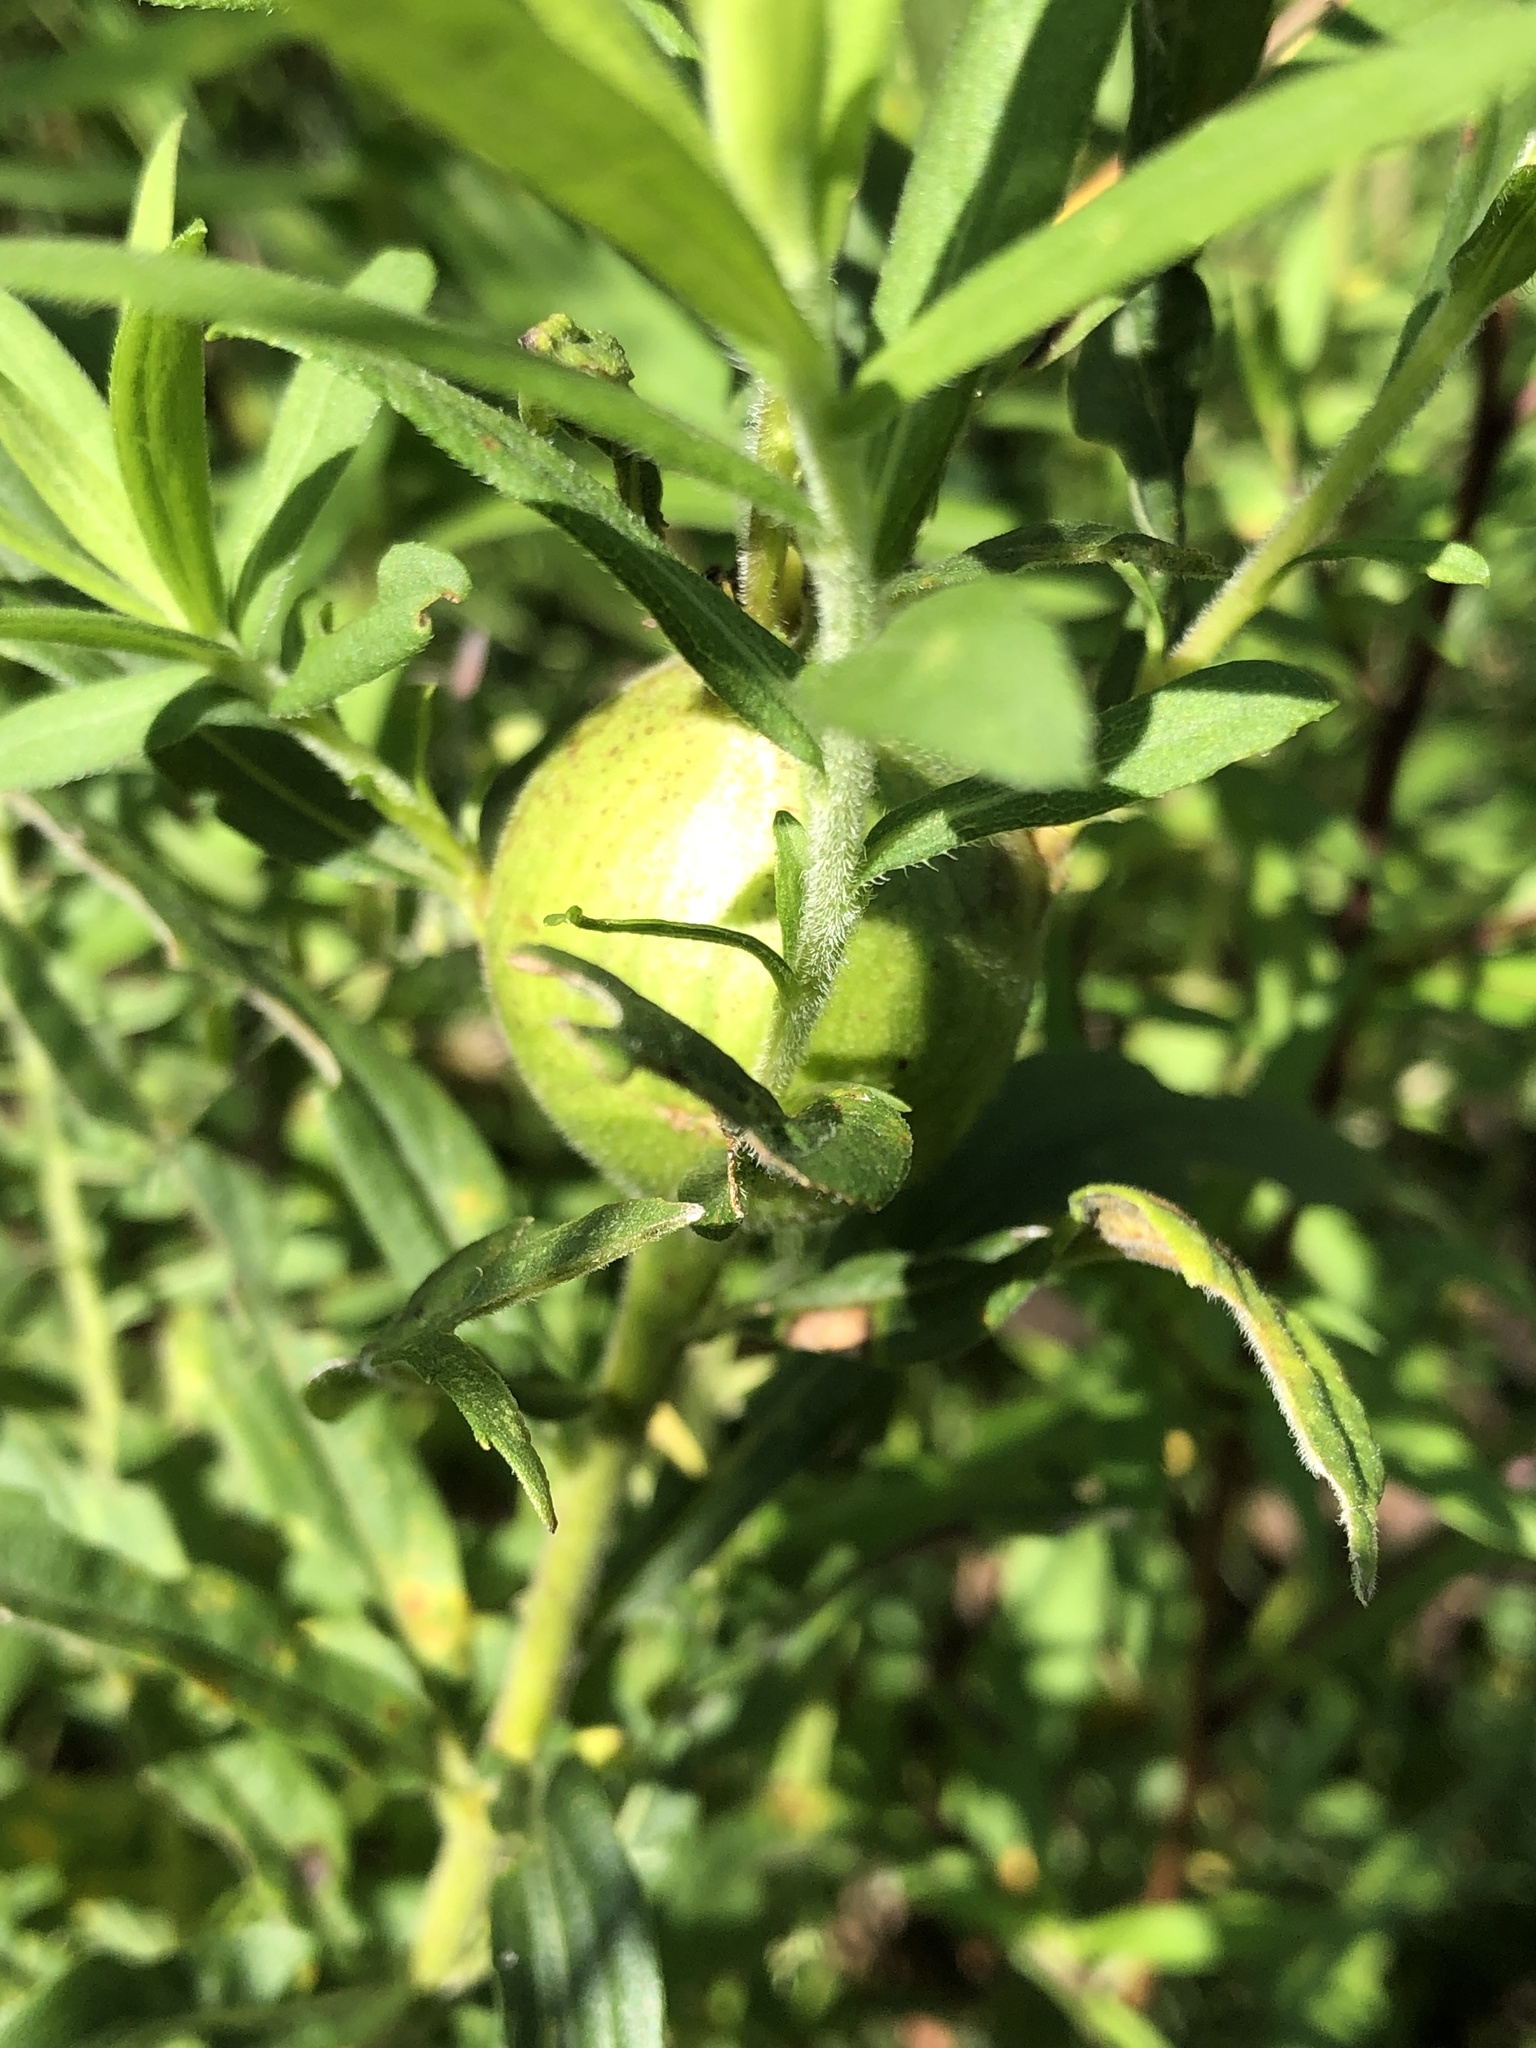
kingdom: Animalia
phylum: Arthropoda
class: Insecta
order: Diptera
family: Tephritidae
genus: Eurosta
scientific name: Eurosta solidaginis
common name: Goldenrod gall fly
